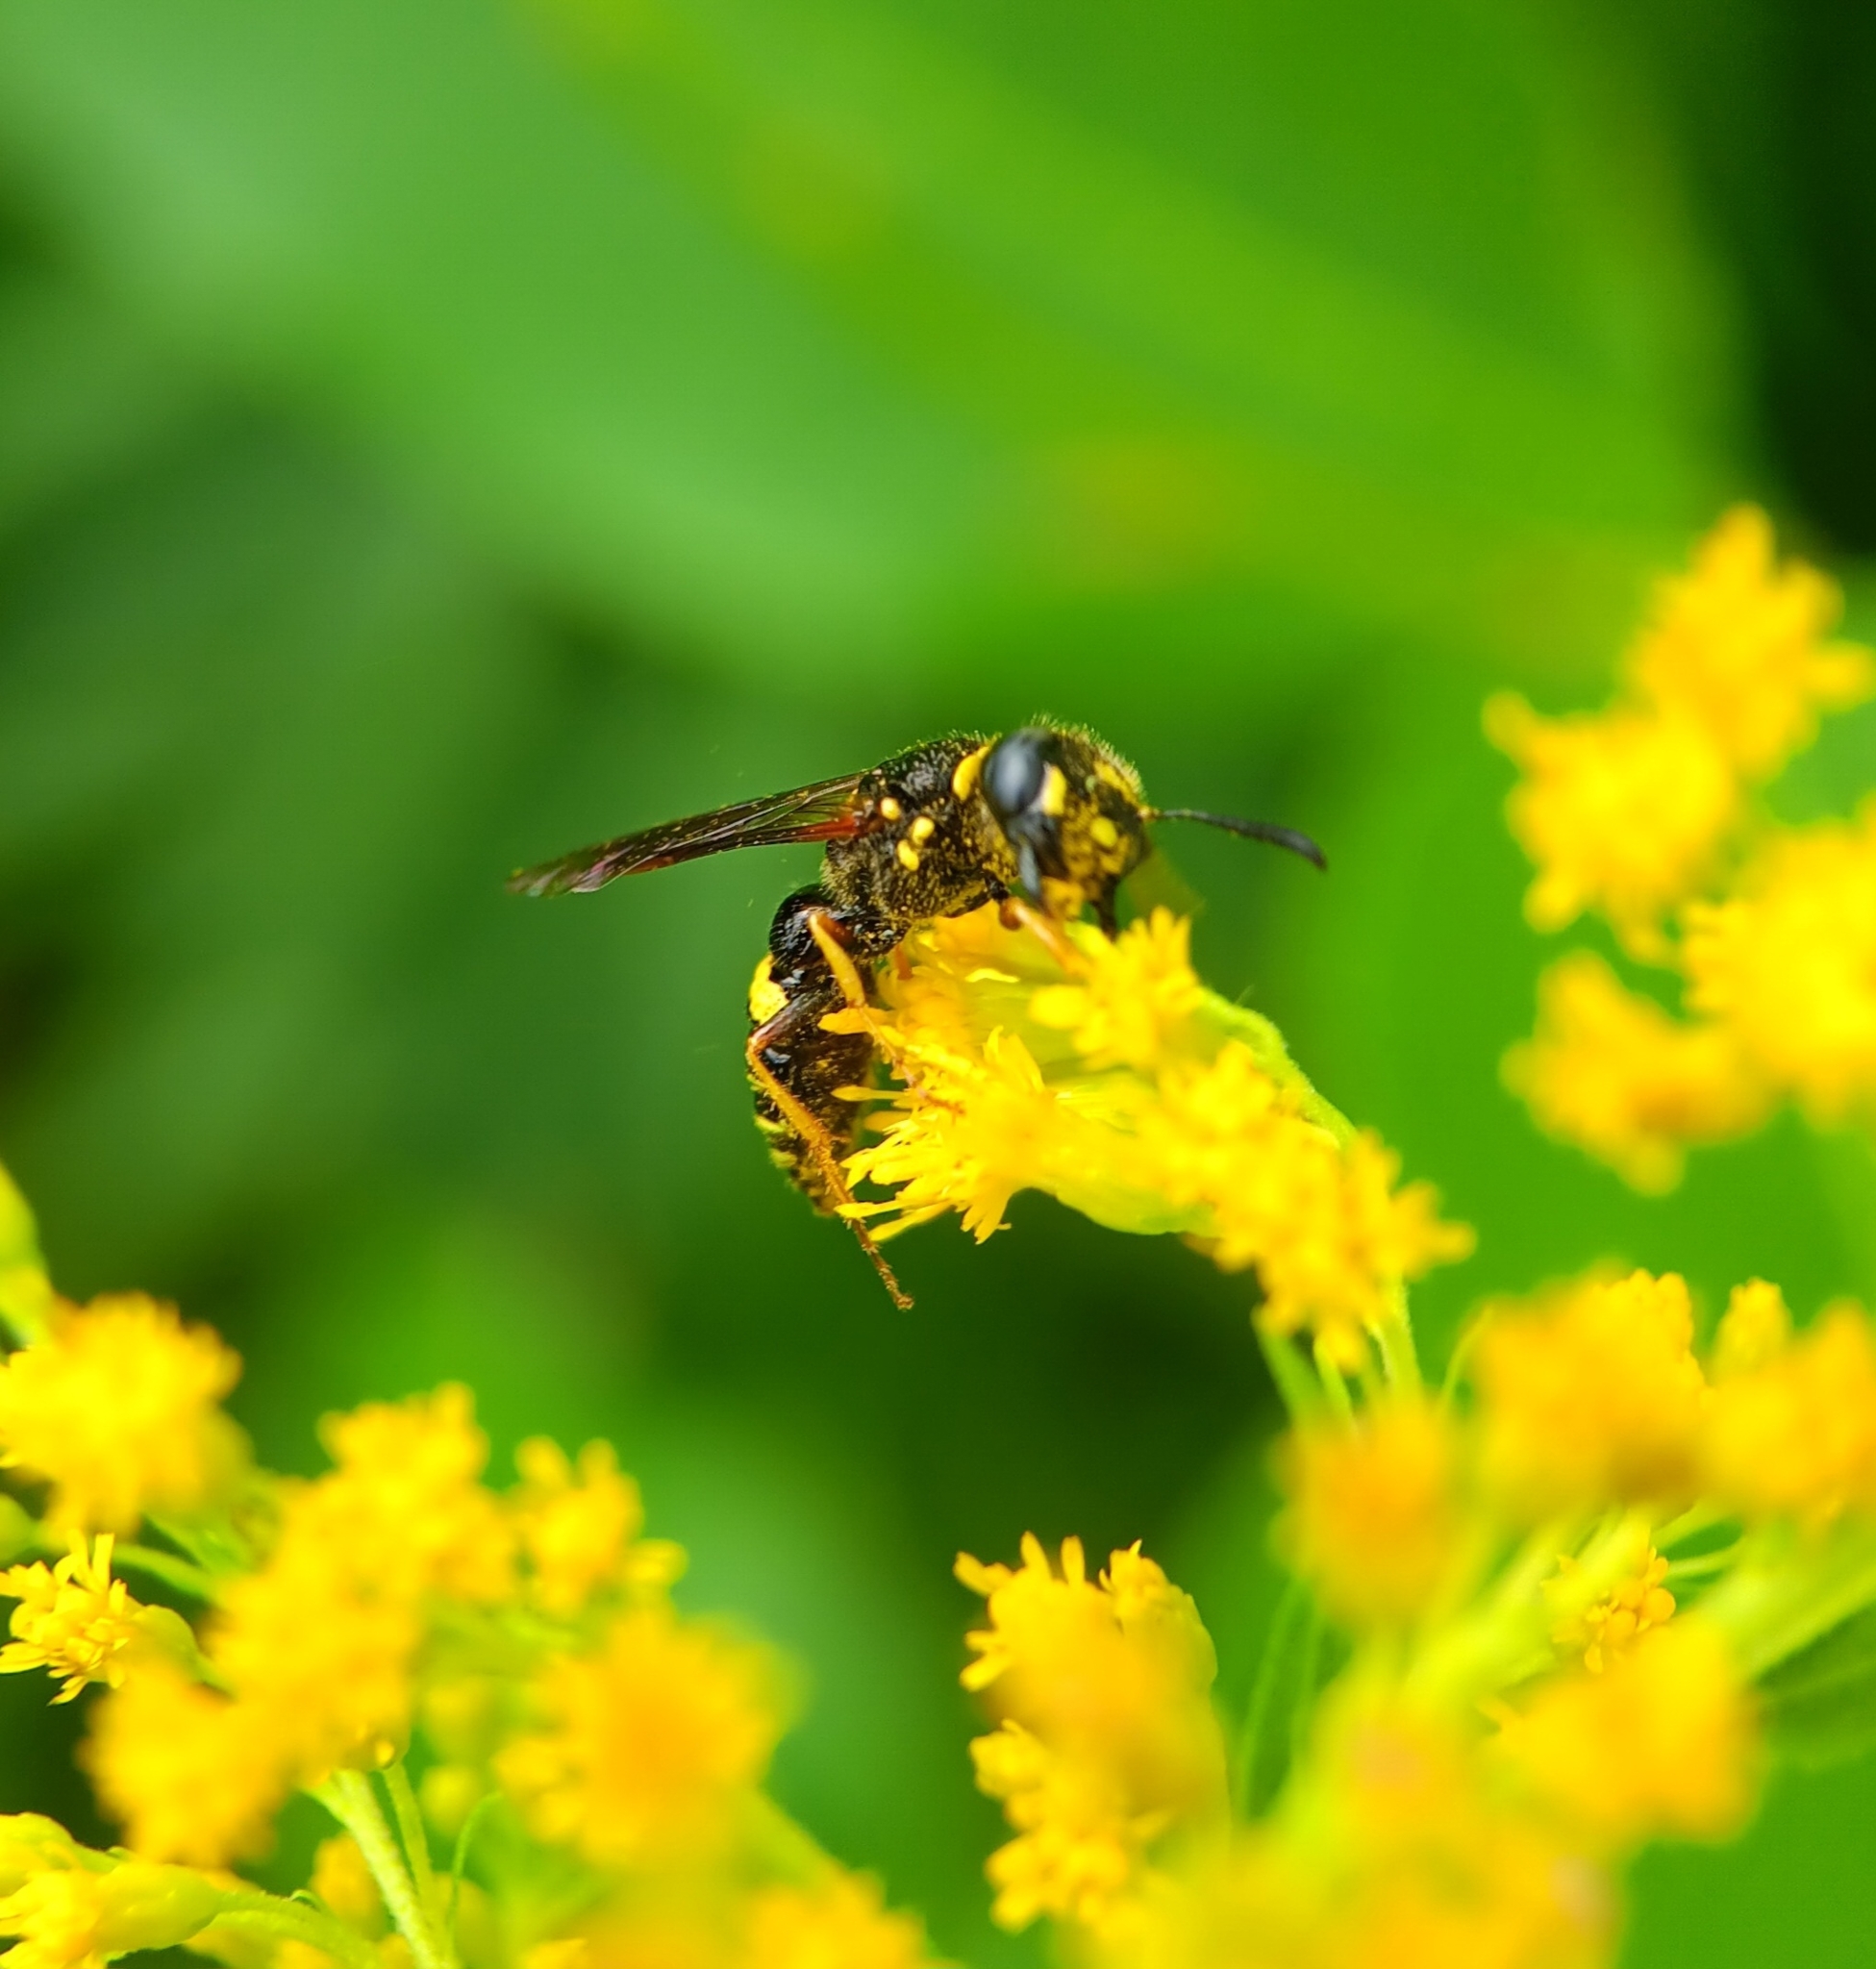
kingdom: Animalia
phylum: Arthropoda
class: Insecta
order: Hymenoptera
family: Crabronidae
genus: Philanthus
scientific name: Philanthus gibbosus
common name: Humped beewolf
